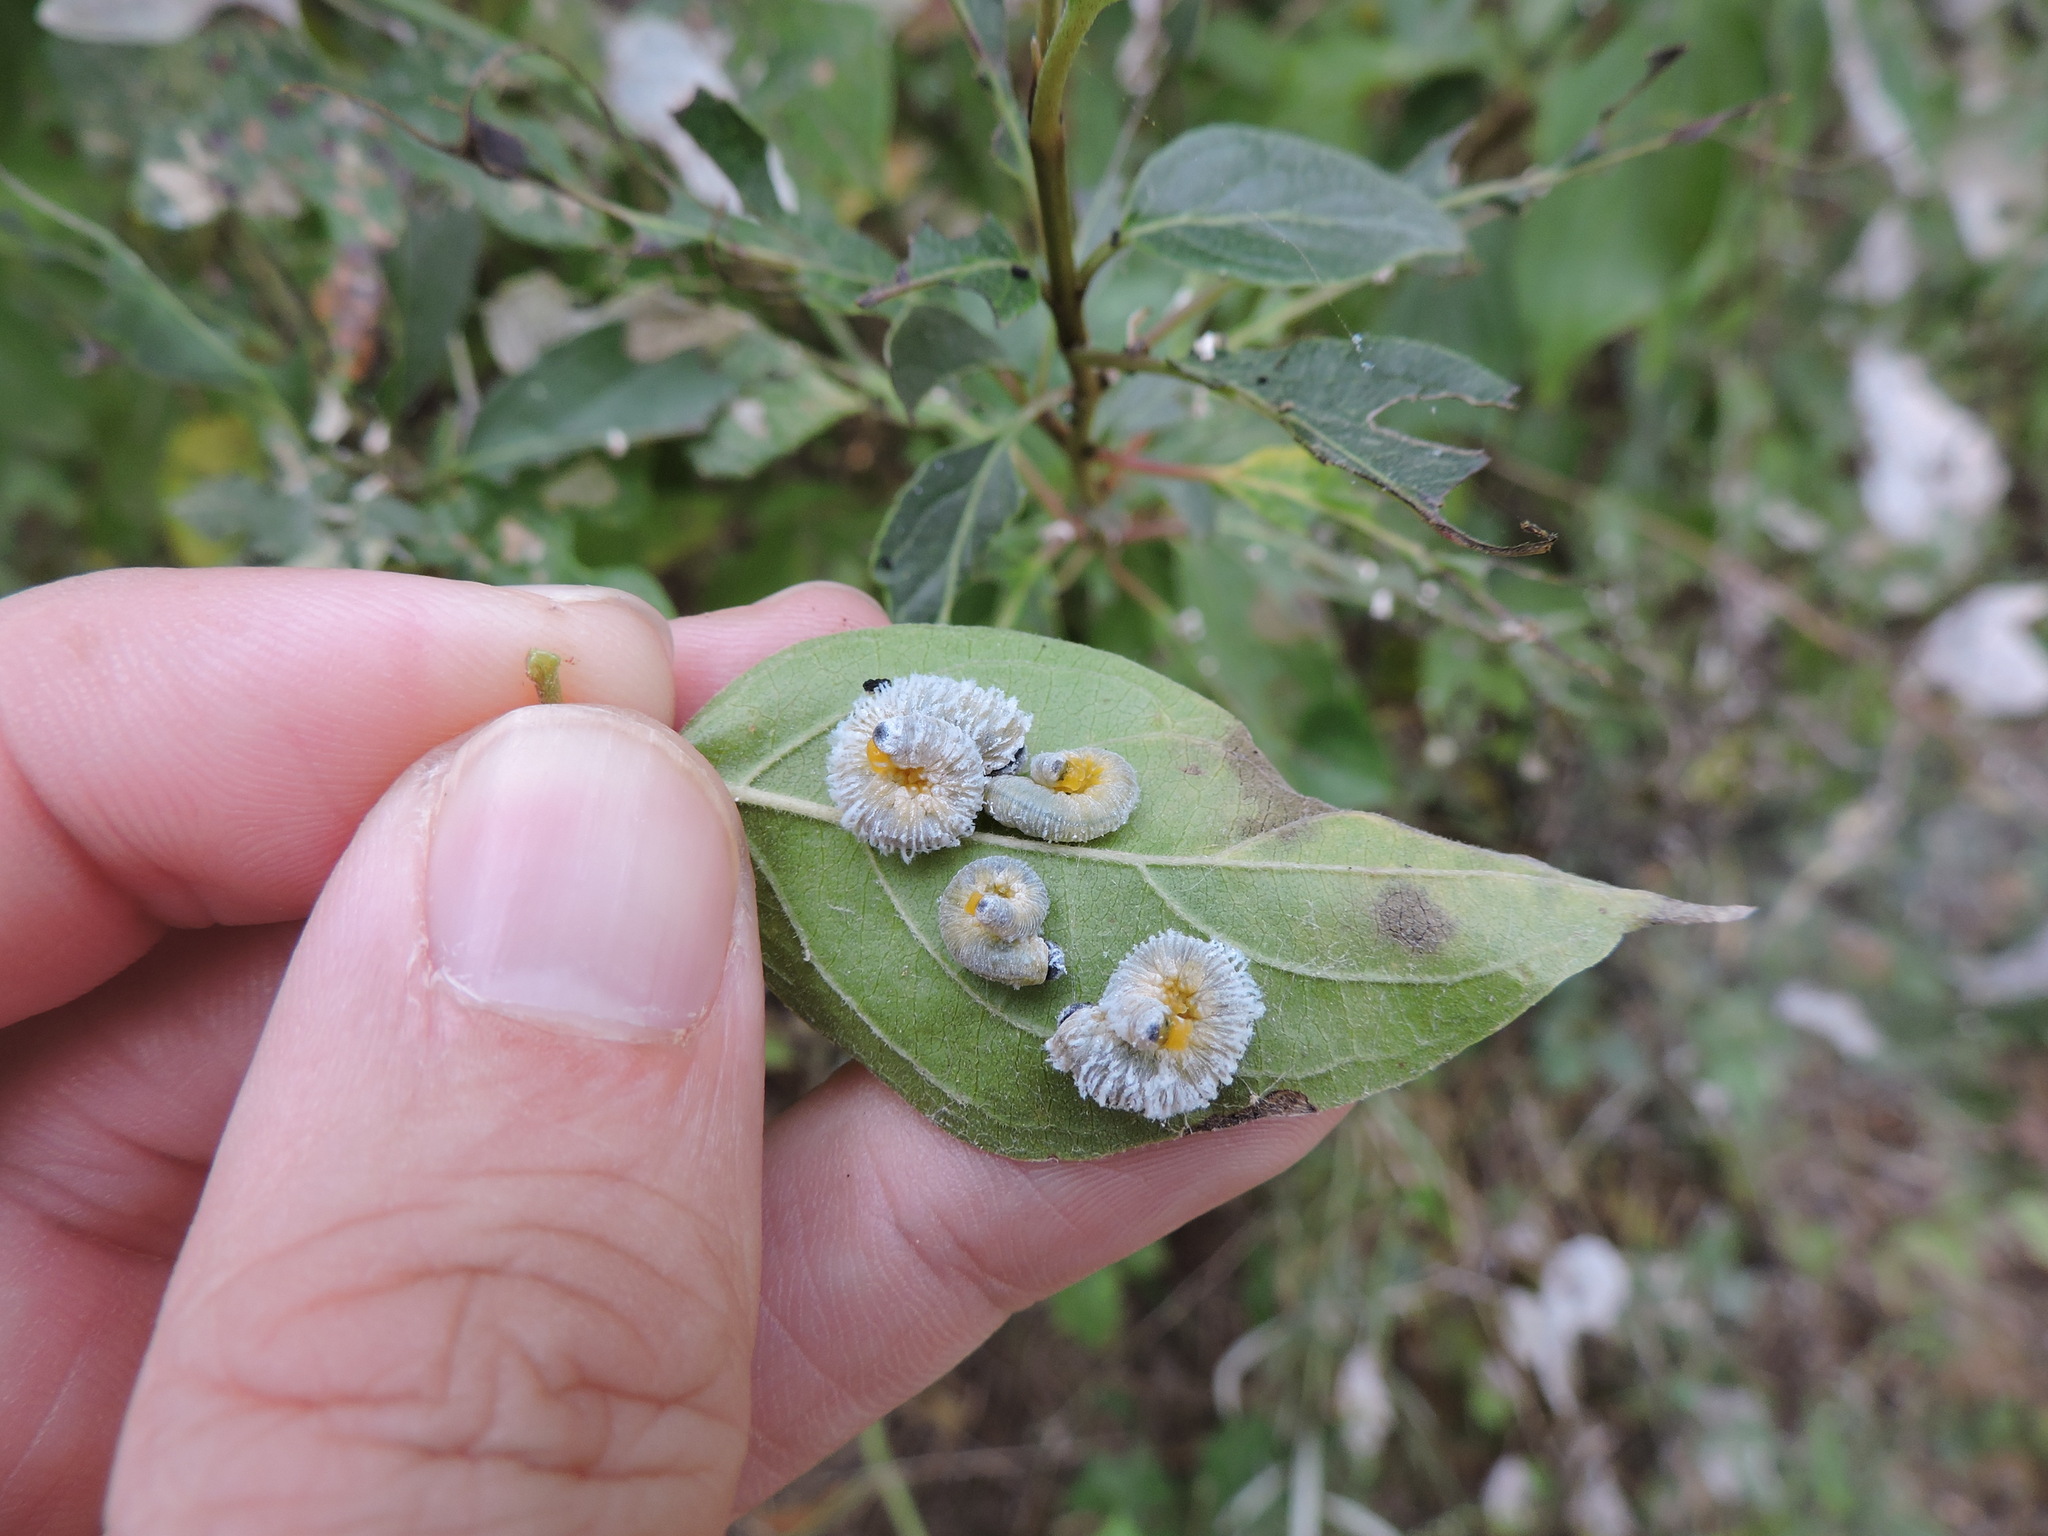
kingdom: Animalia
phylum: Arthropoda
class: Insecta
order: Hymenoptera
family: Tenthredinidae
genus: Macremphytus
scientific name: Macremphytus testaceus
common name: Dogwood sawfly
